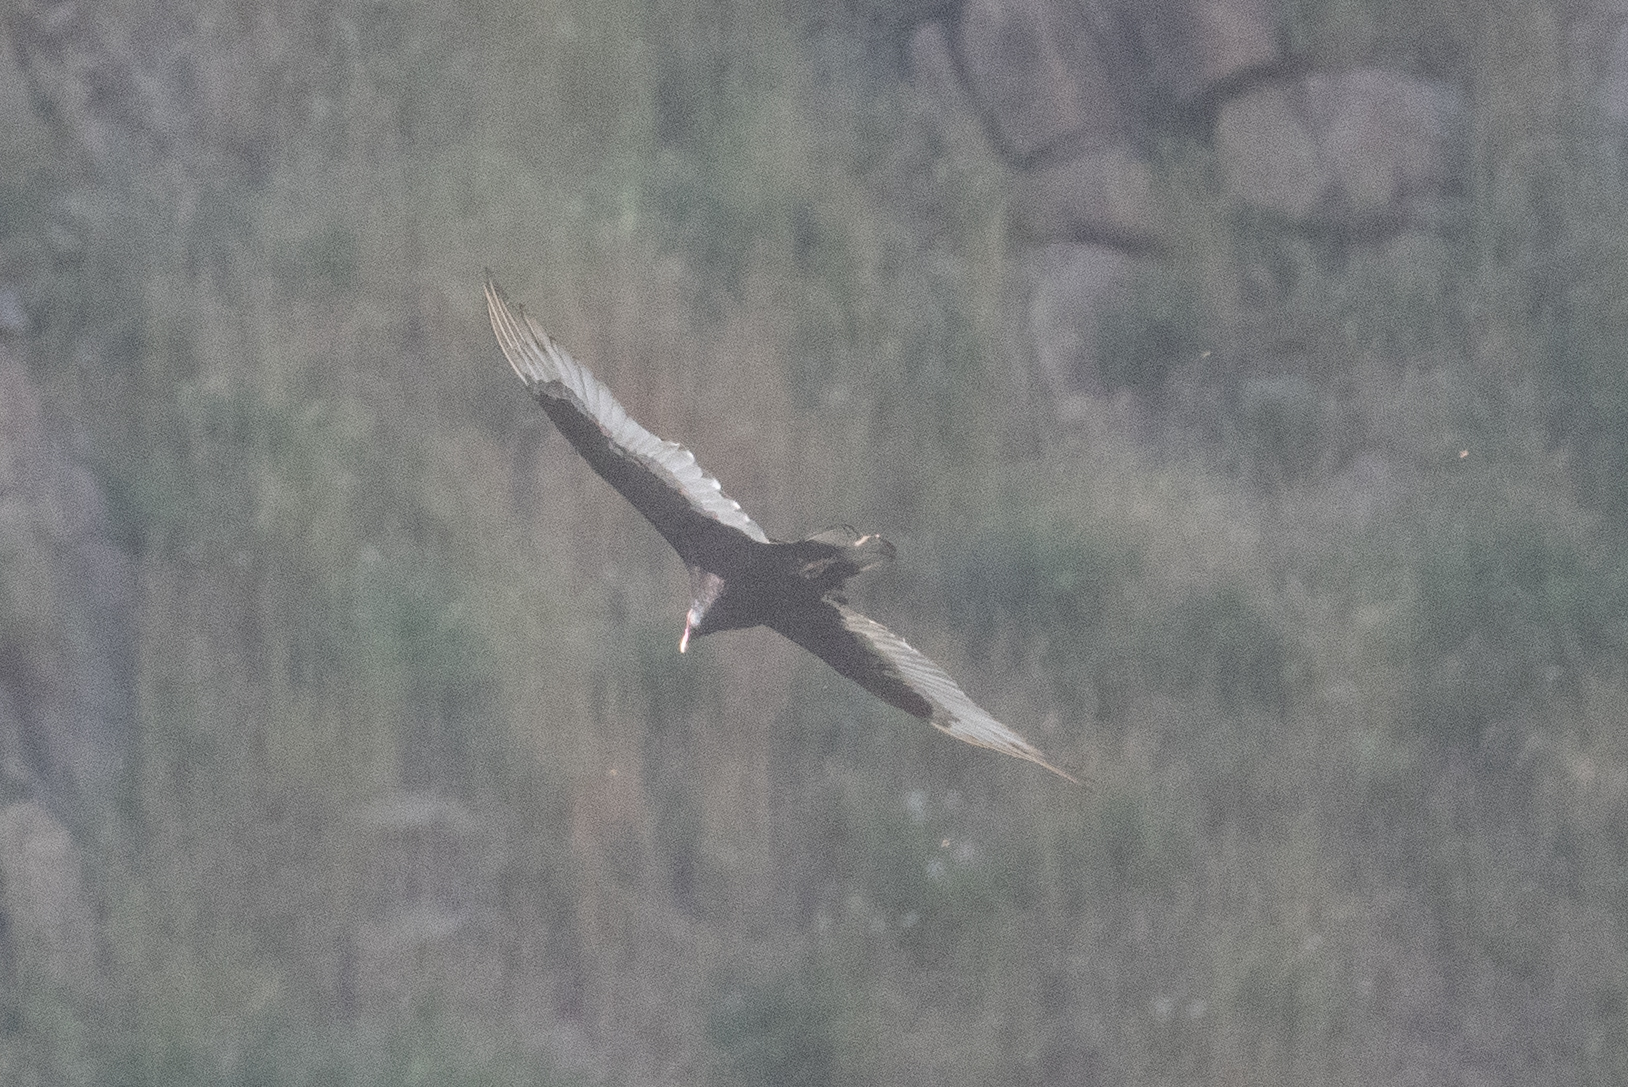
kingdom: Animalia
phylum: Chordata
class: Aves
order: Accipitriformes
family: Cathartidae
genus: Cathartes
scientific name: Cathartes aura
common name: Turkey vulture
